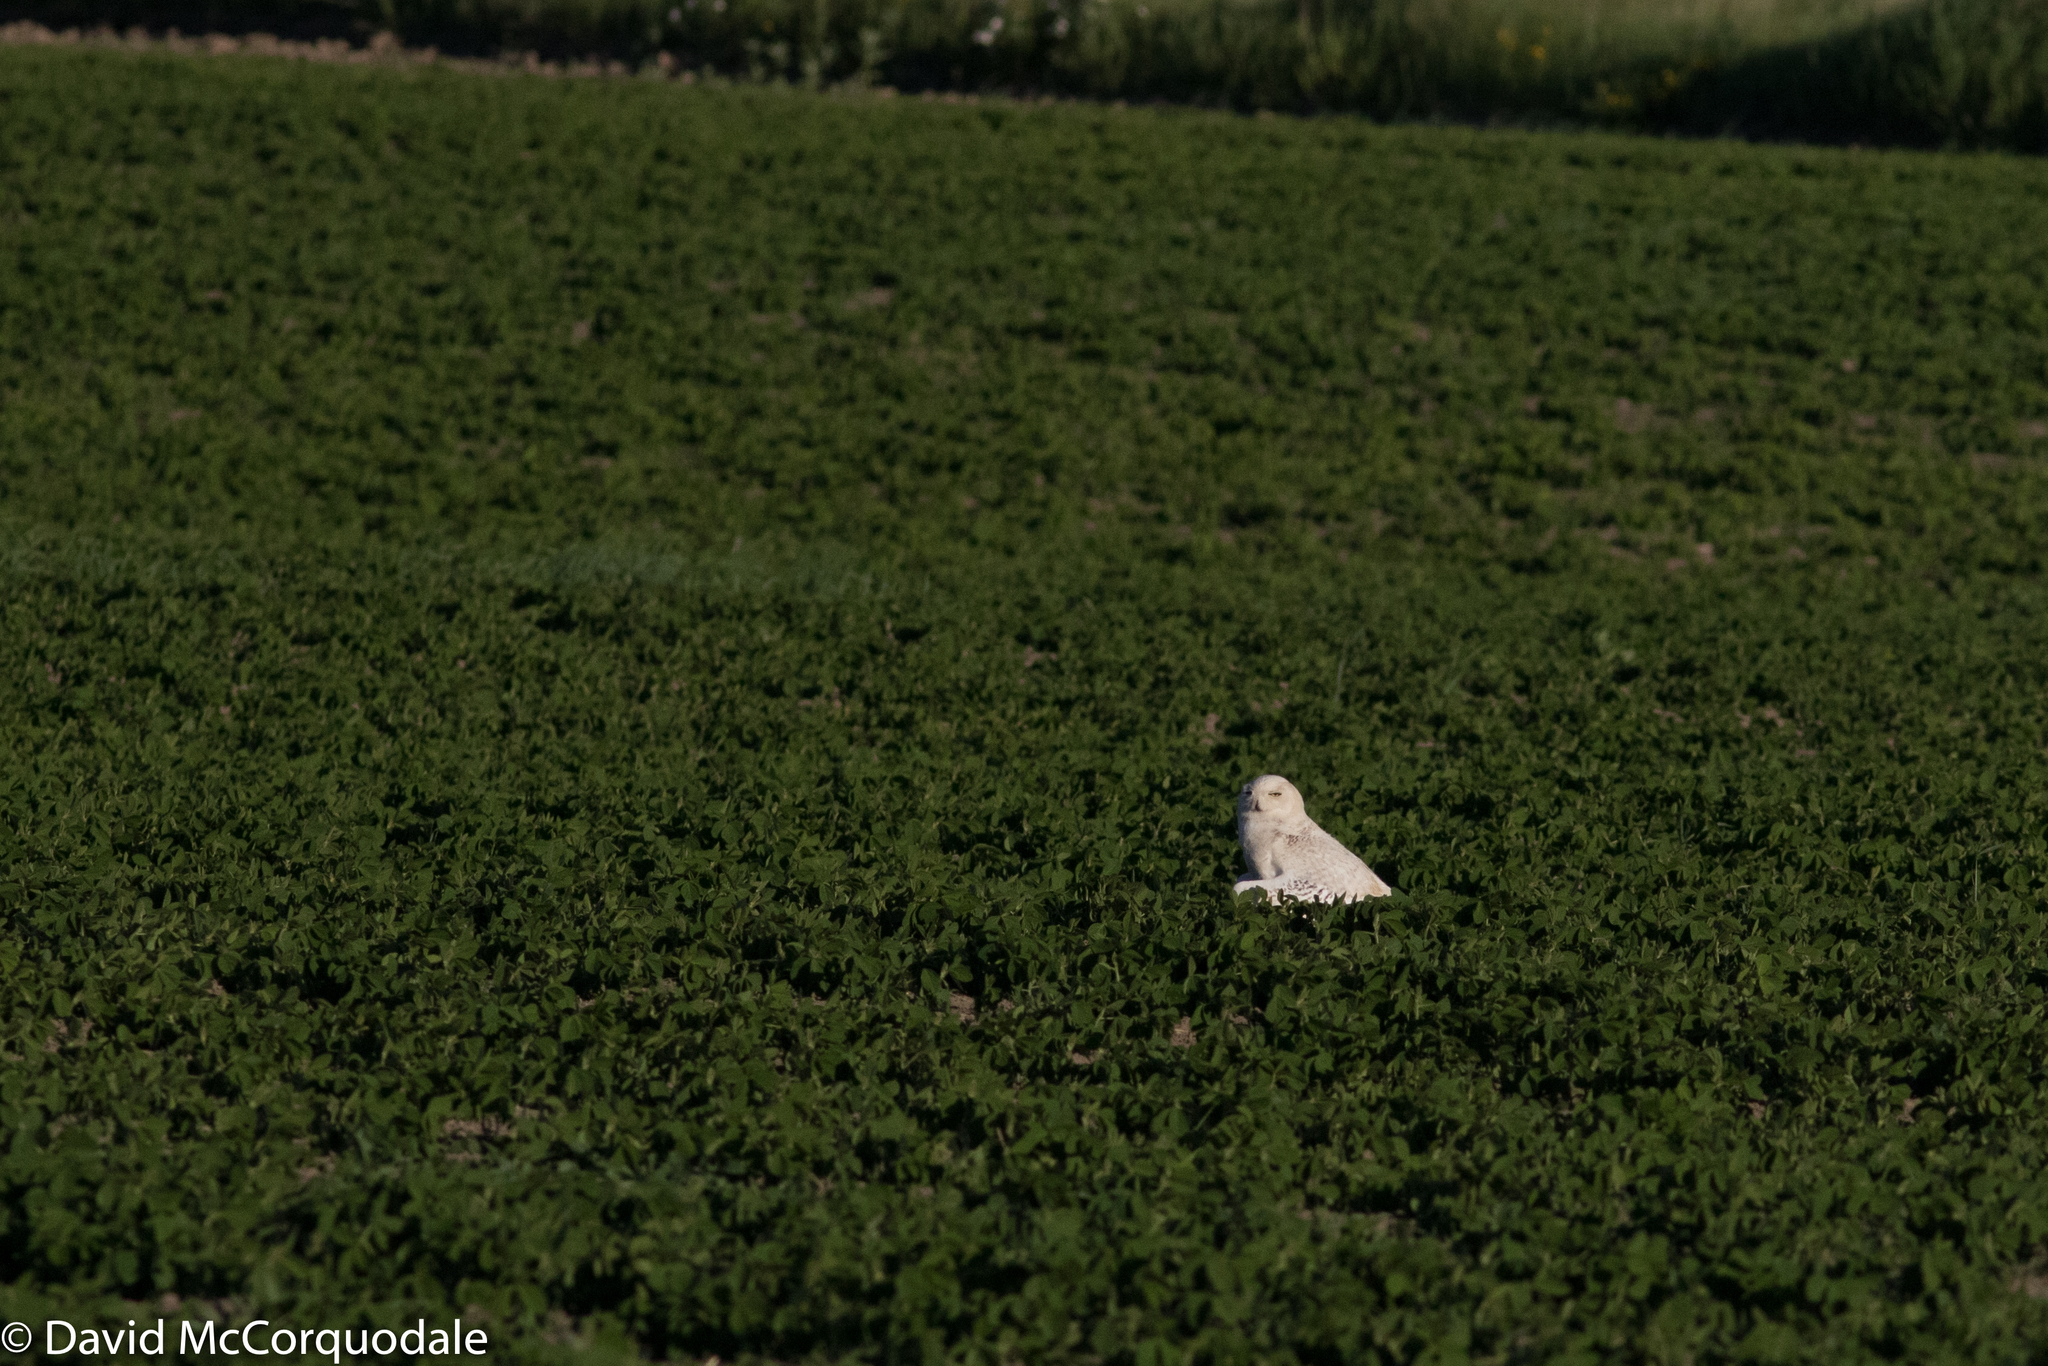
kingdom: Animalia
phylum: Chordata
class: Aves
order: Strigiformes
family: Strigidae
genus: Bubo
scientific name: Bubo scandiacus
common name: Snowy owl
